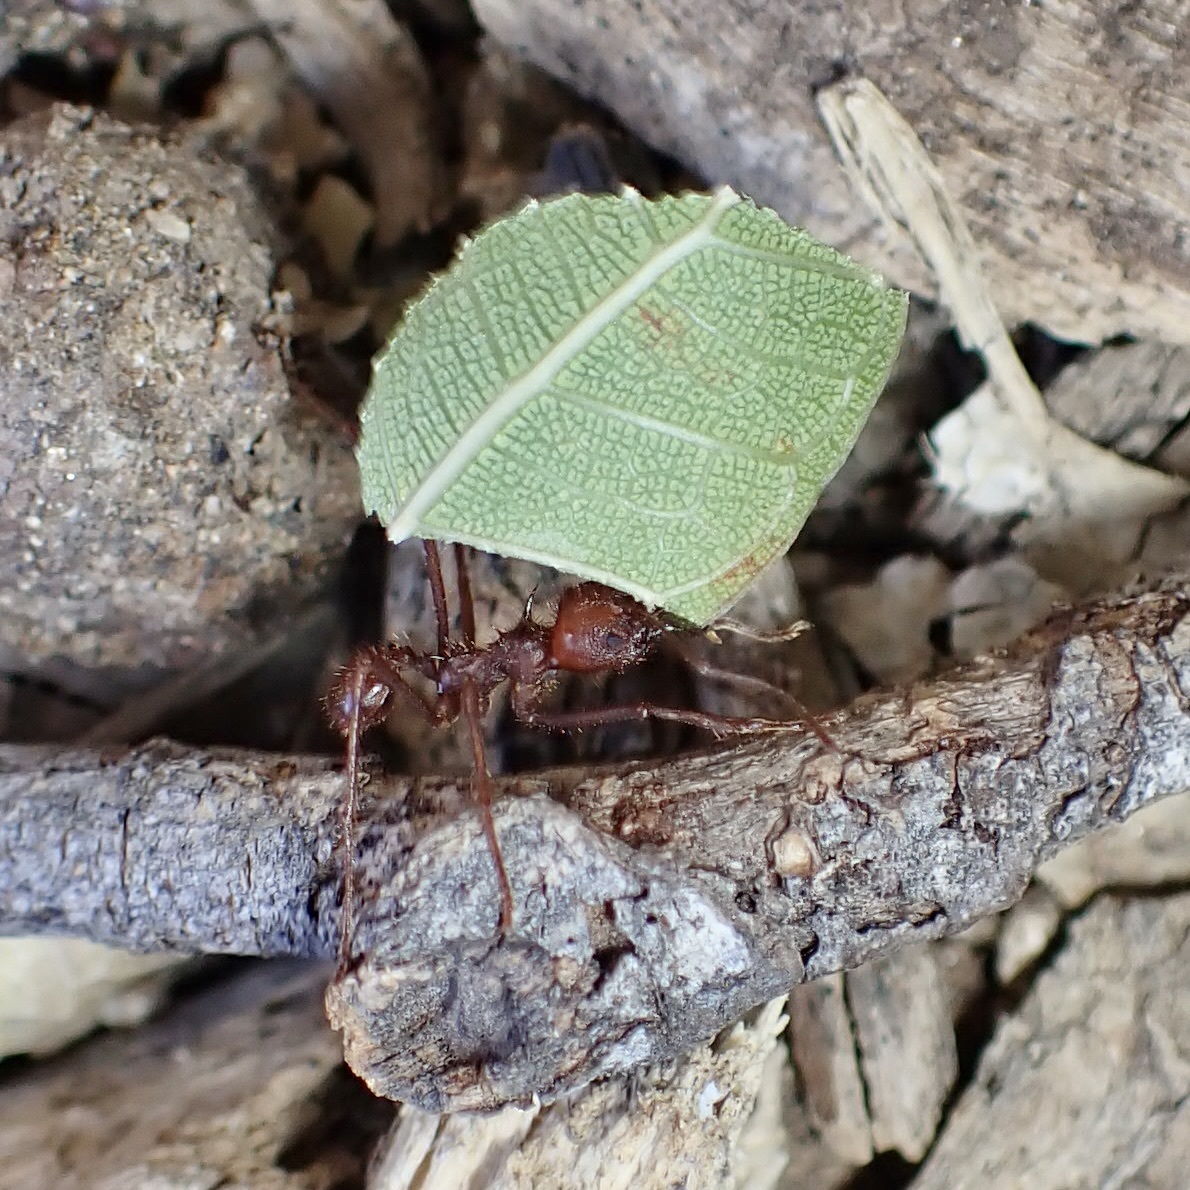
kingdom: Animalia
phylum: Arthropoda
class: Insecta
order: Hymenoptera
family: Formicidae
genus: Atta
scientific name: Atta mexicana
